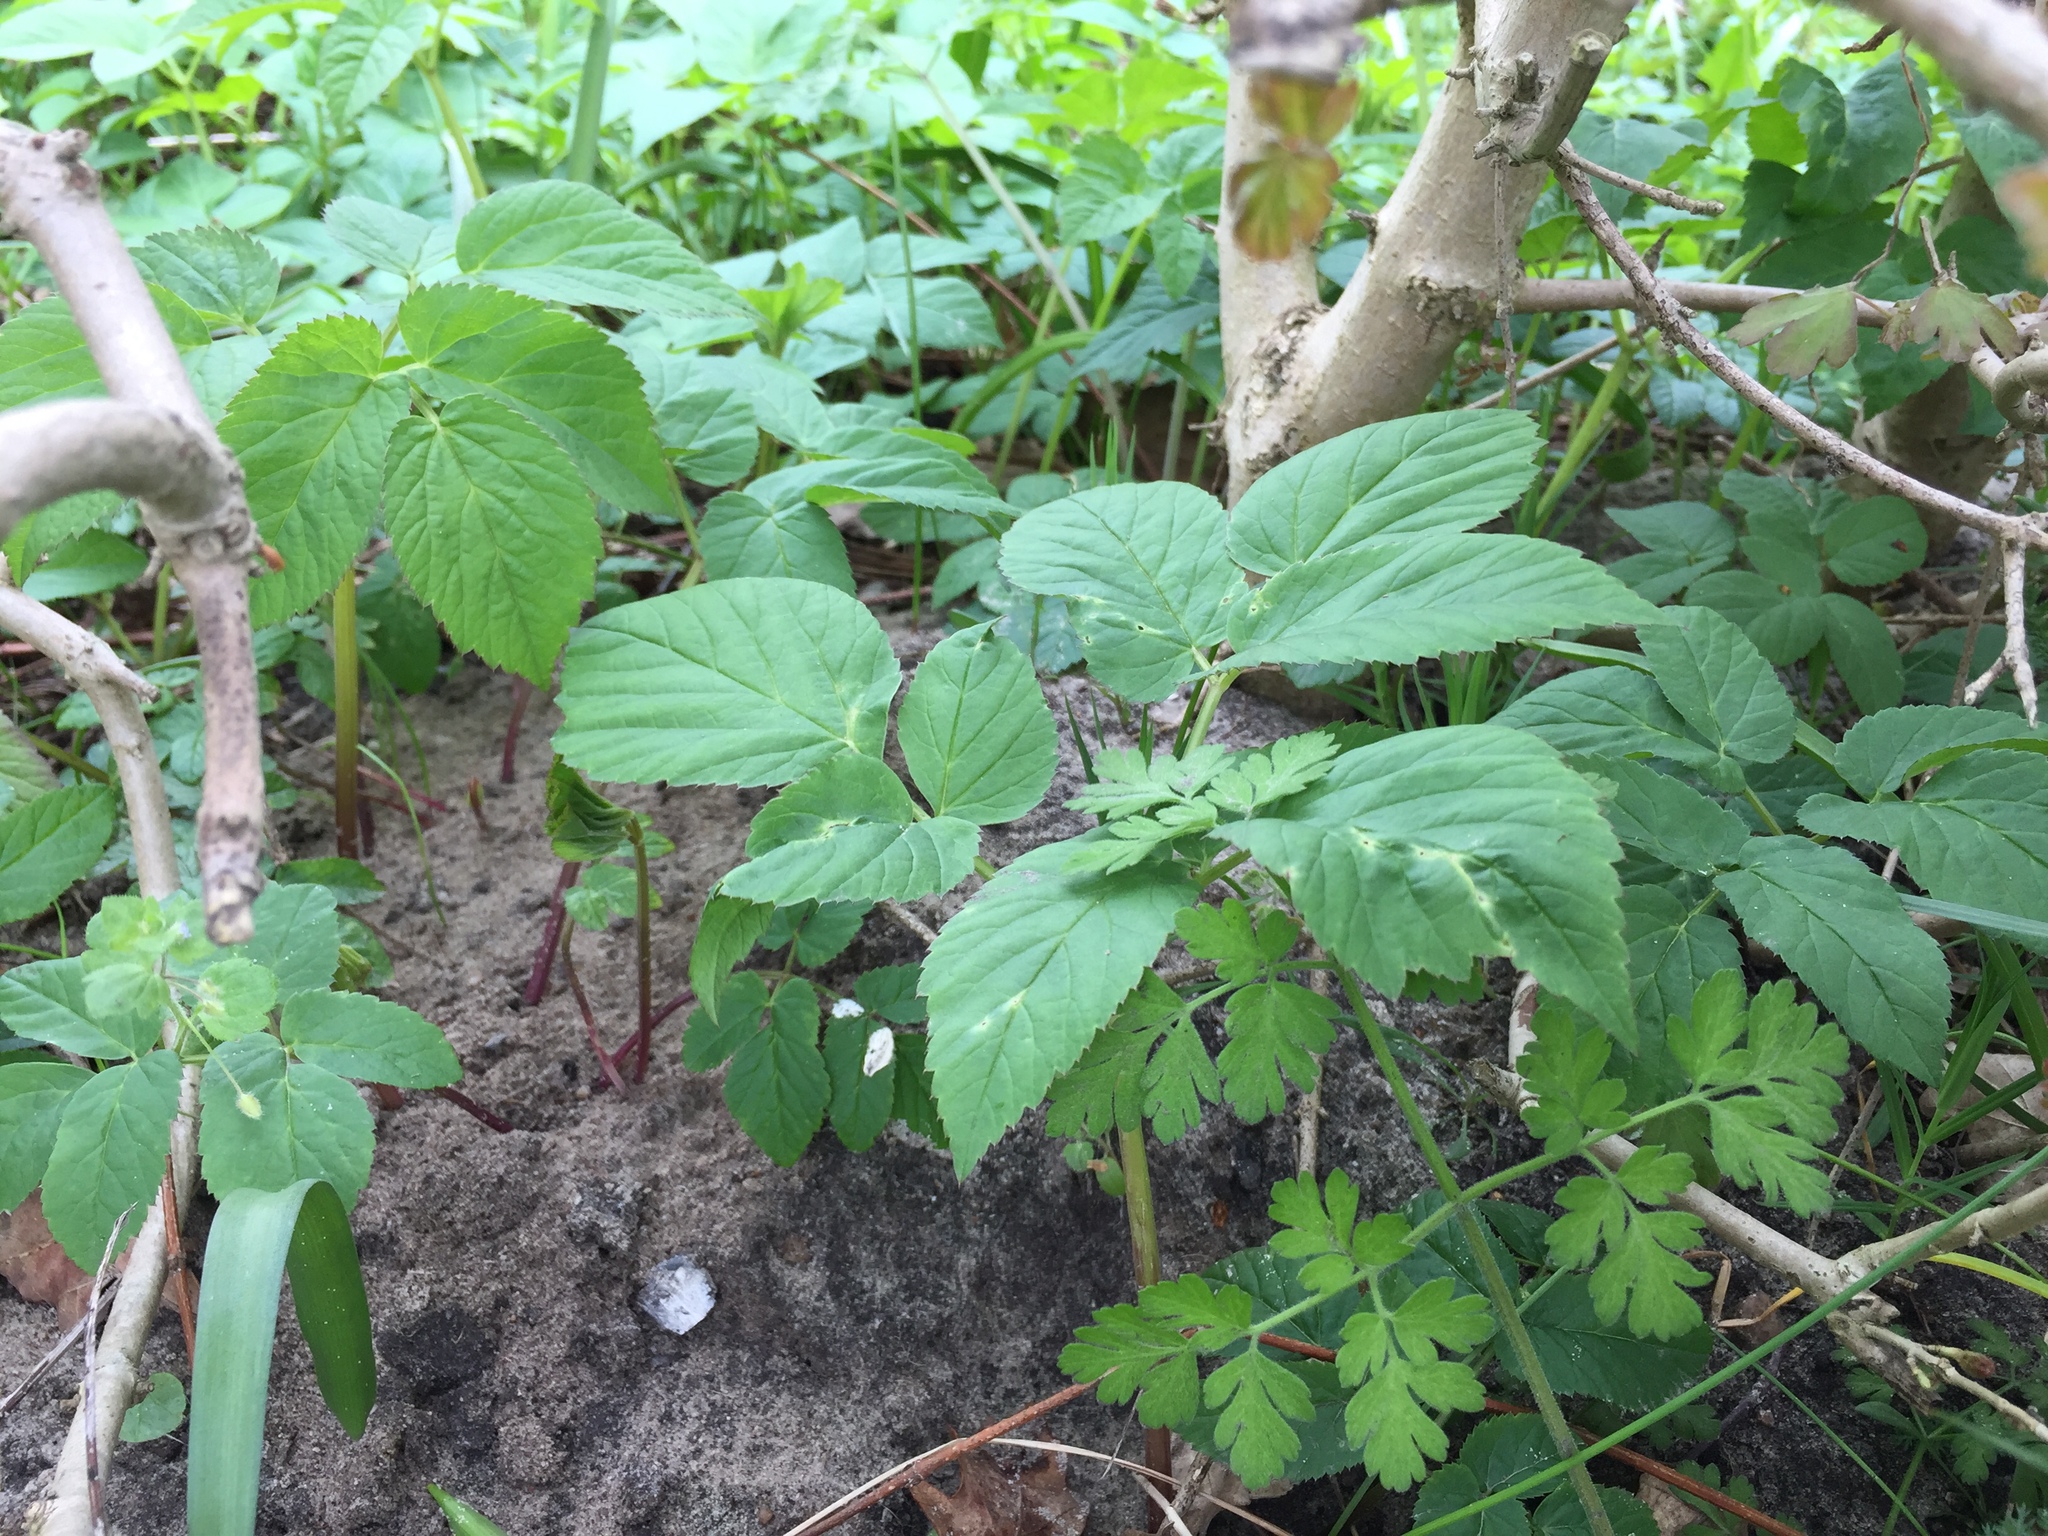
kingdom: Plantae
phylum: Tracheophyta
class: Magnoliopsida
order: Apiales
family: Apiaceae
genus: Aegopodium
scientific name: Aegopodium podagraria
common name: Ground-elder
